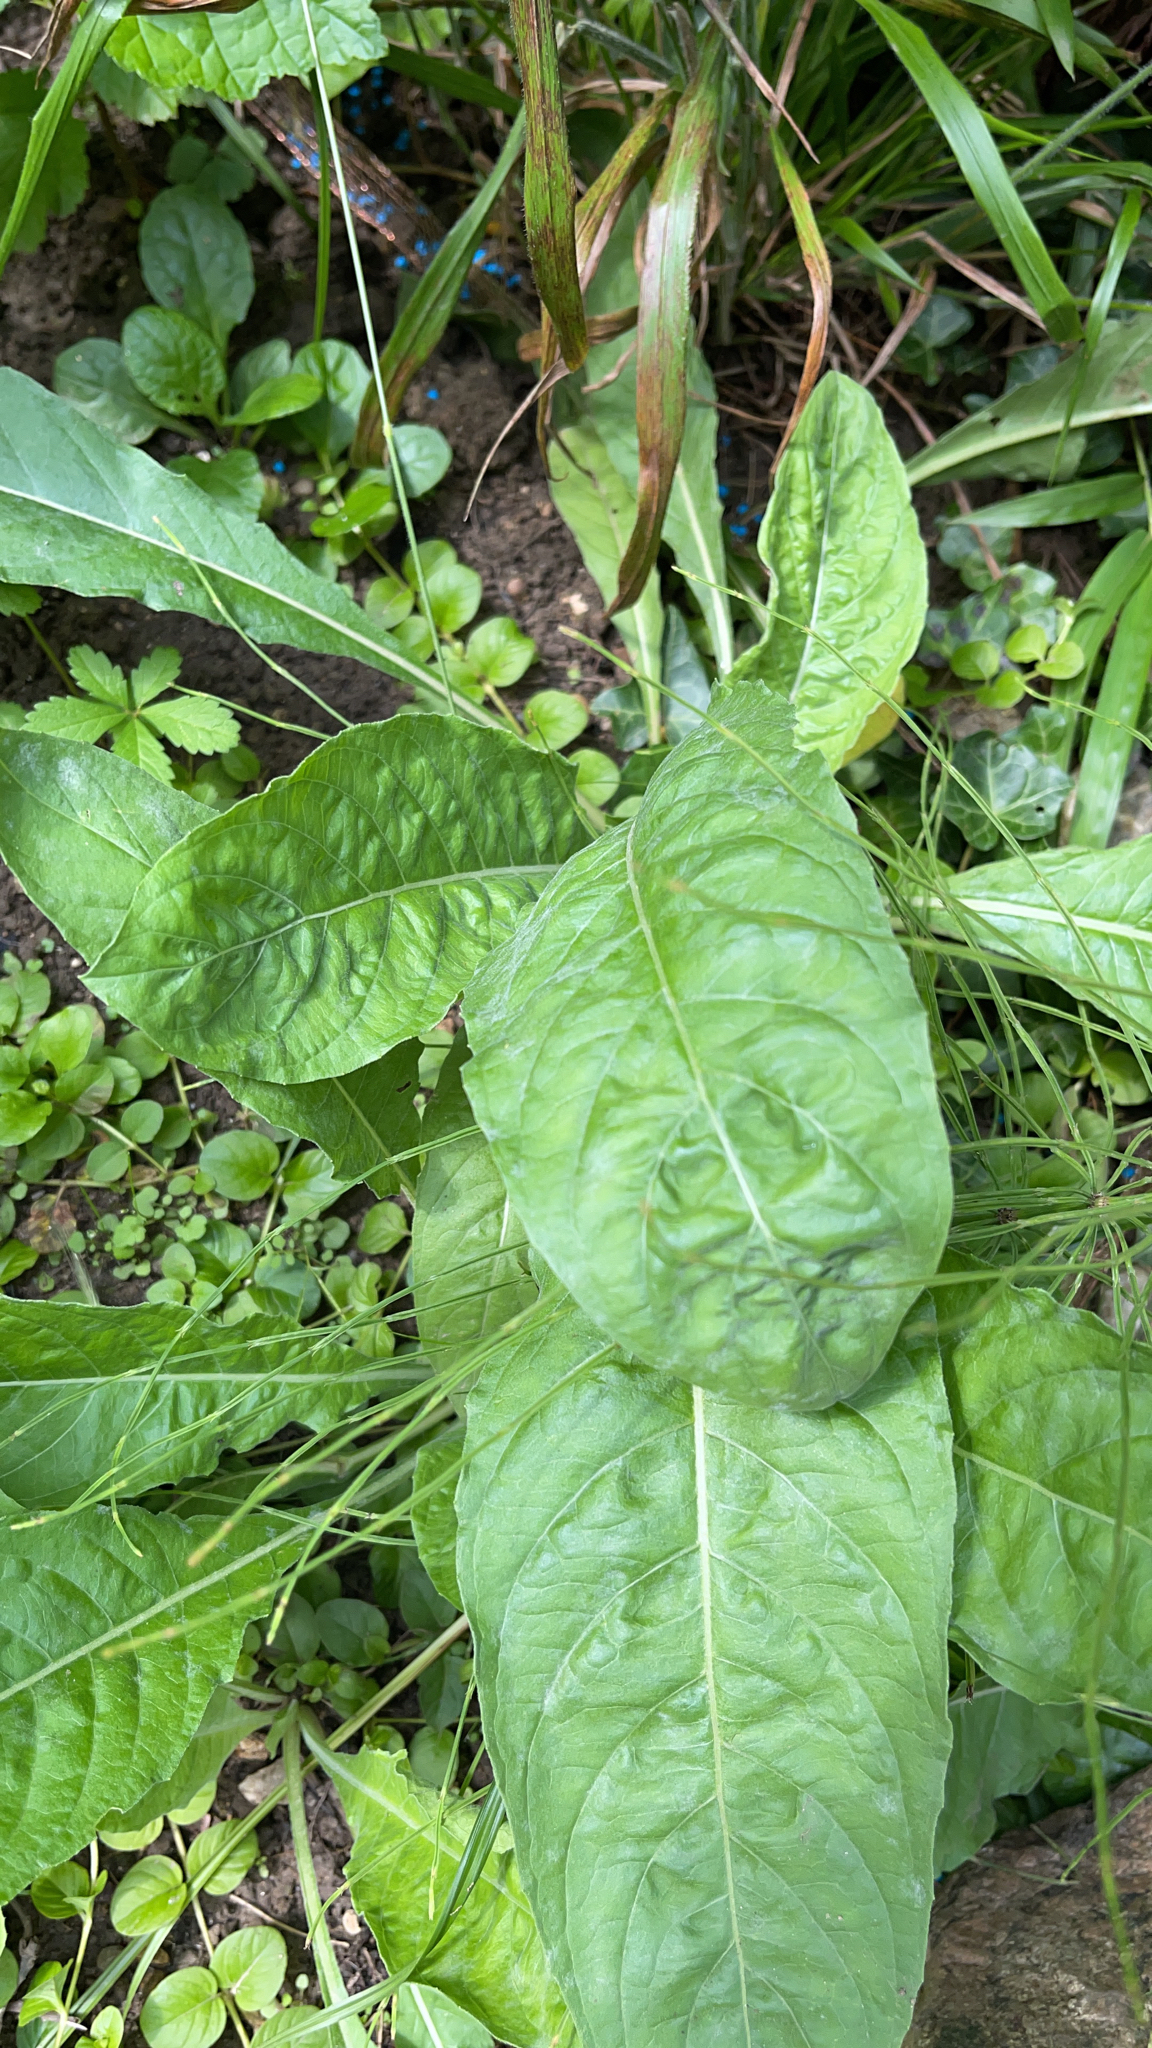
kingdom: Plantae
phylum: Tracheophyta
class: Magnoliopsida
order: Solanales
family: Solanaceae
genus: Nicotiana
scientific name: Nicotiana plumbaginifolia
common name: Tex-mex tobacco
